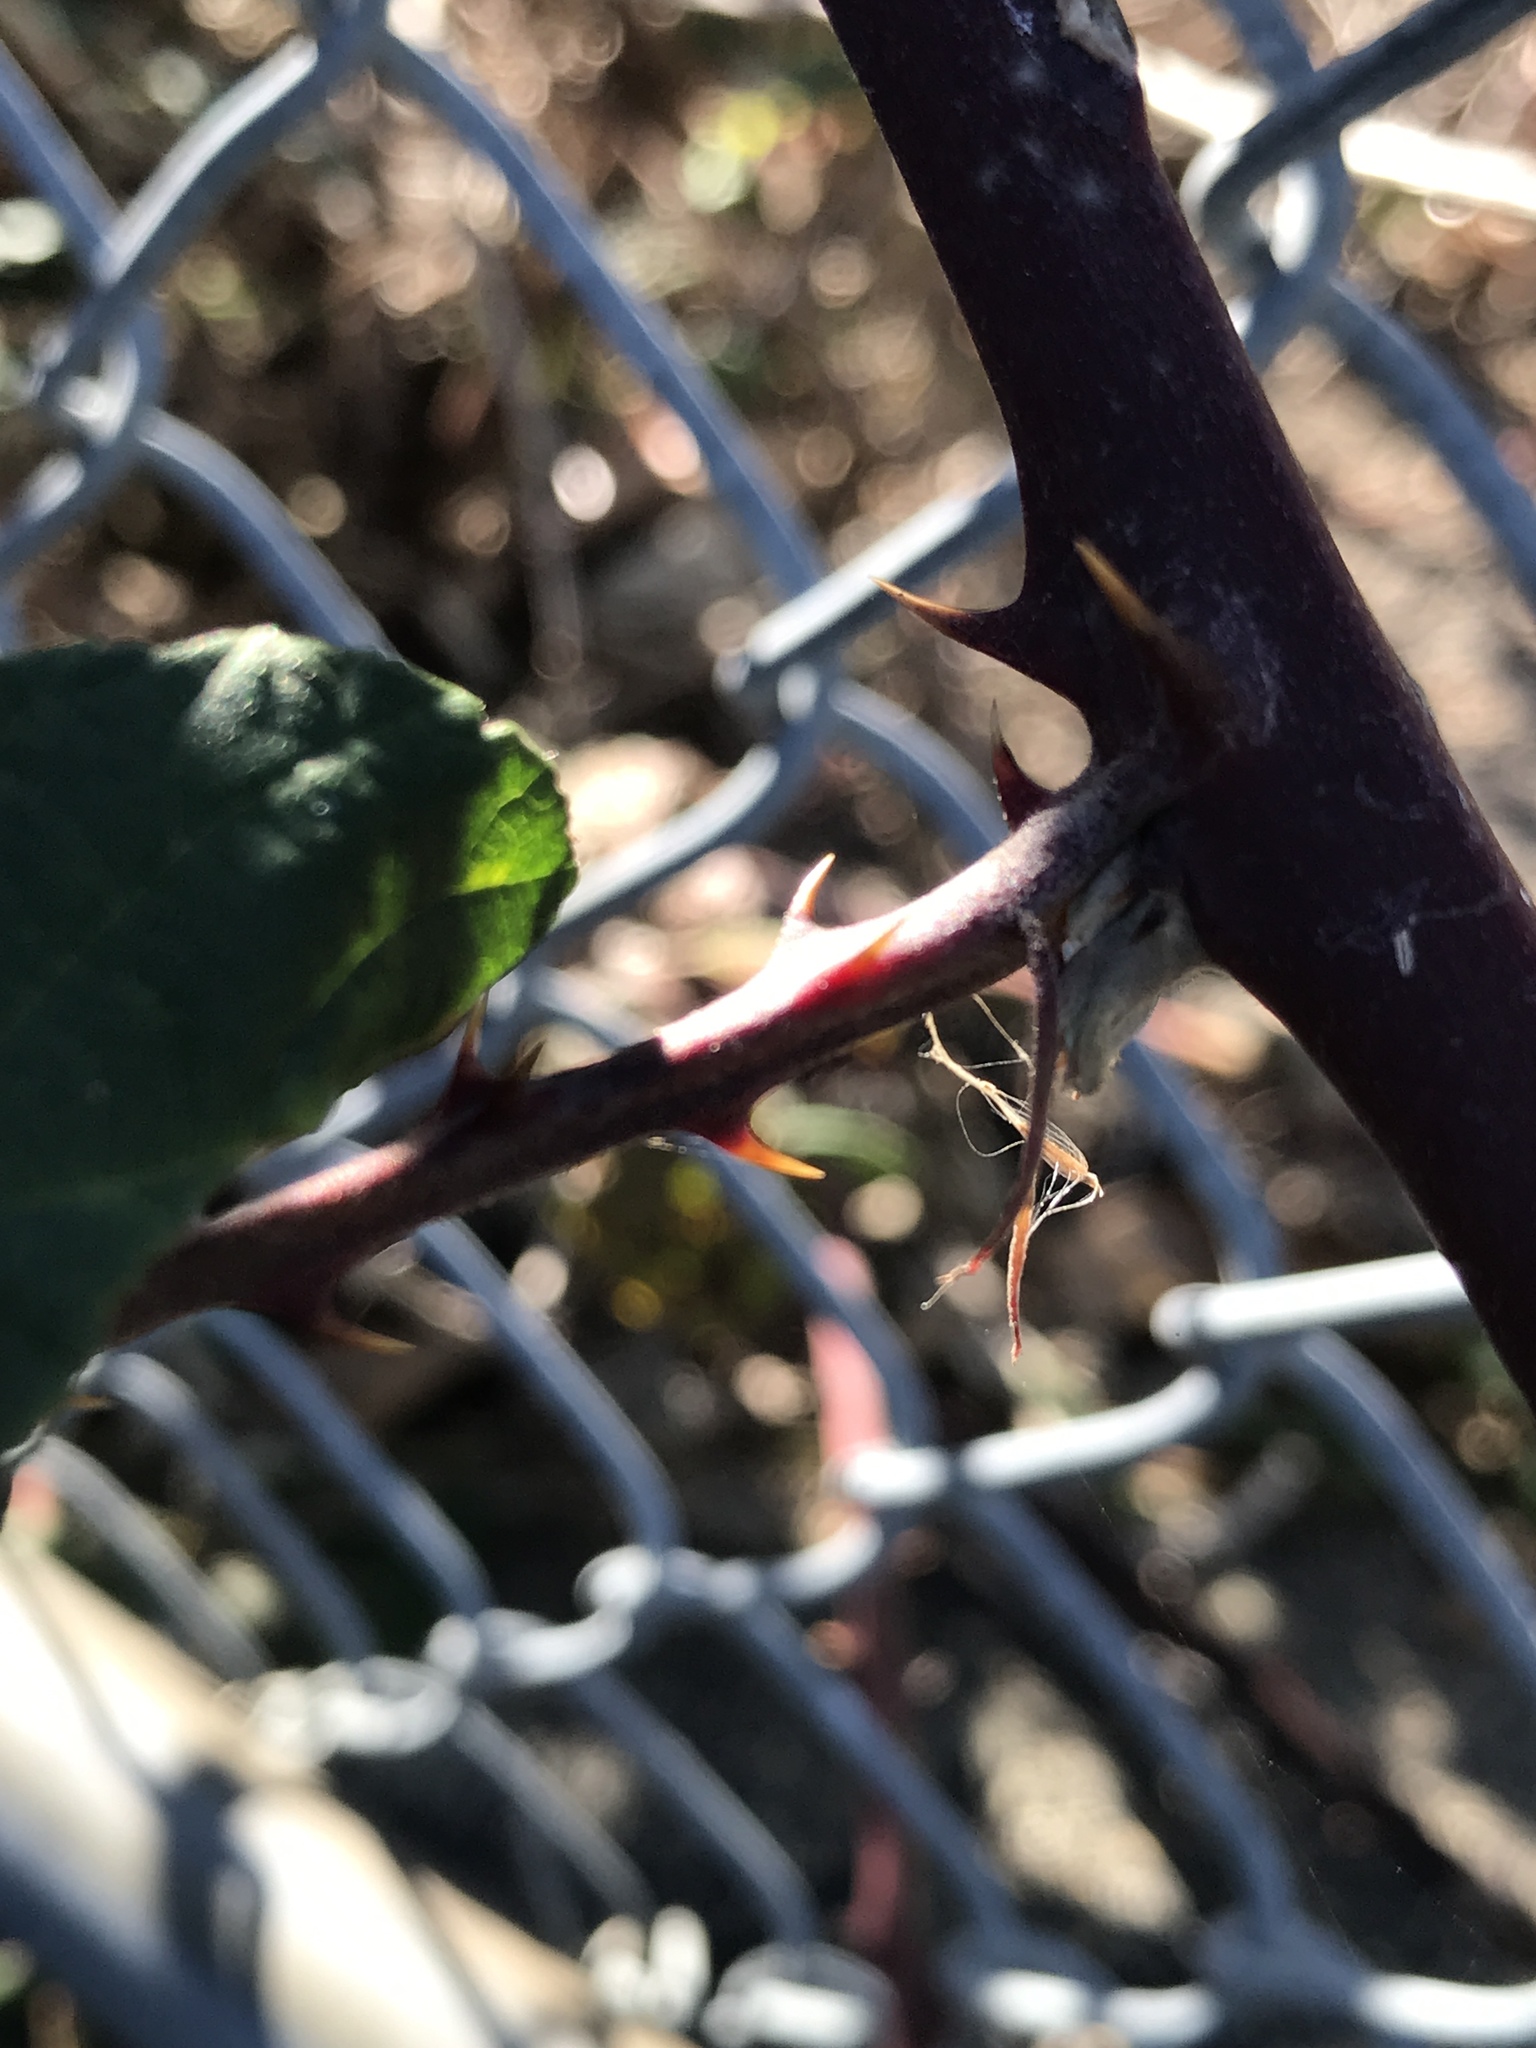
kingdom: Plantae
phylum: Tracheophyta
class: Magnoliopsida
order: Rosales
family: Rosaceae
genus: Rubus
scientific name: Rubus bifrons
